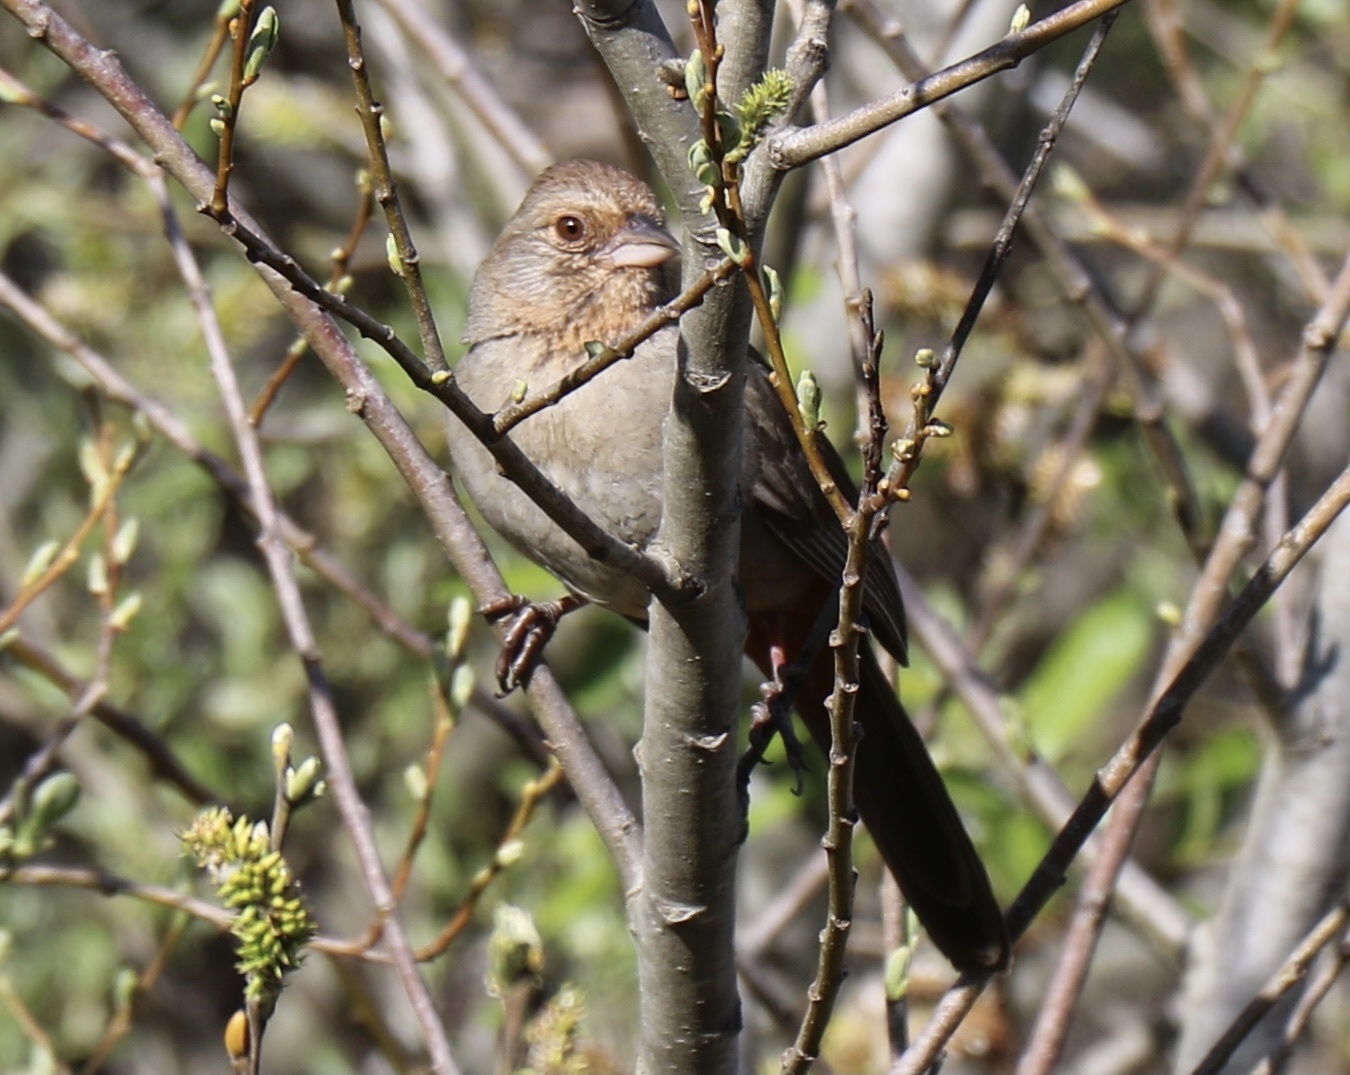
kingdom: Animalia
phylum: Chordata
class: Aves
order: Passeriformes
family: Passerellidae
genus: Melozone
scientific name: Melozone crissalis
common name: California towhee
